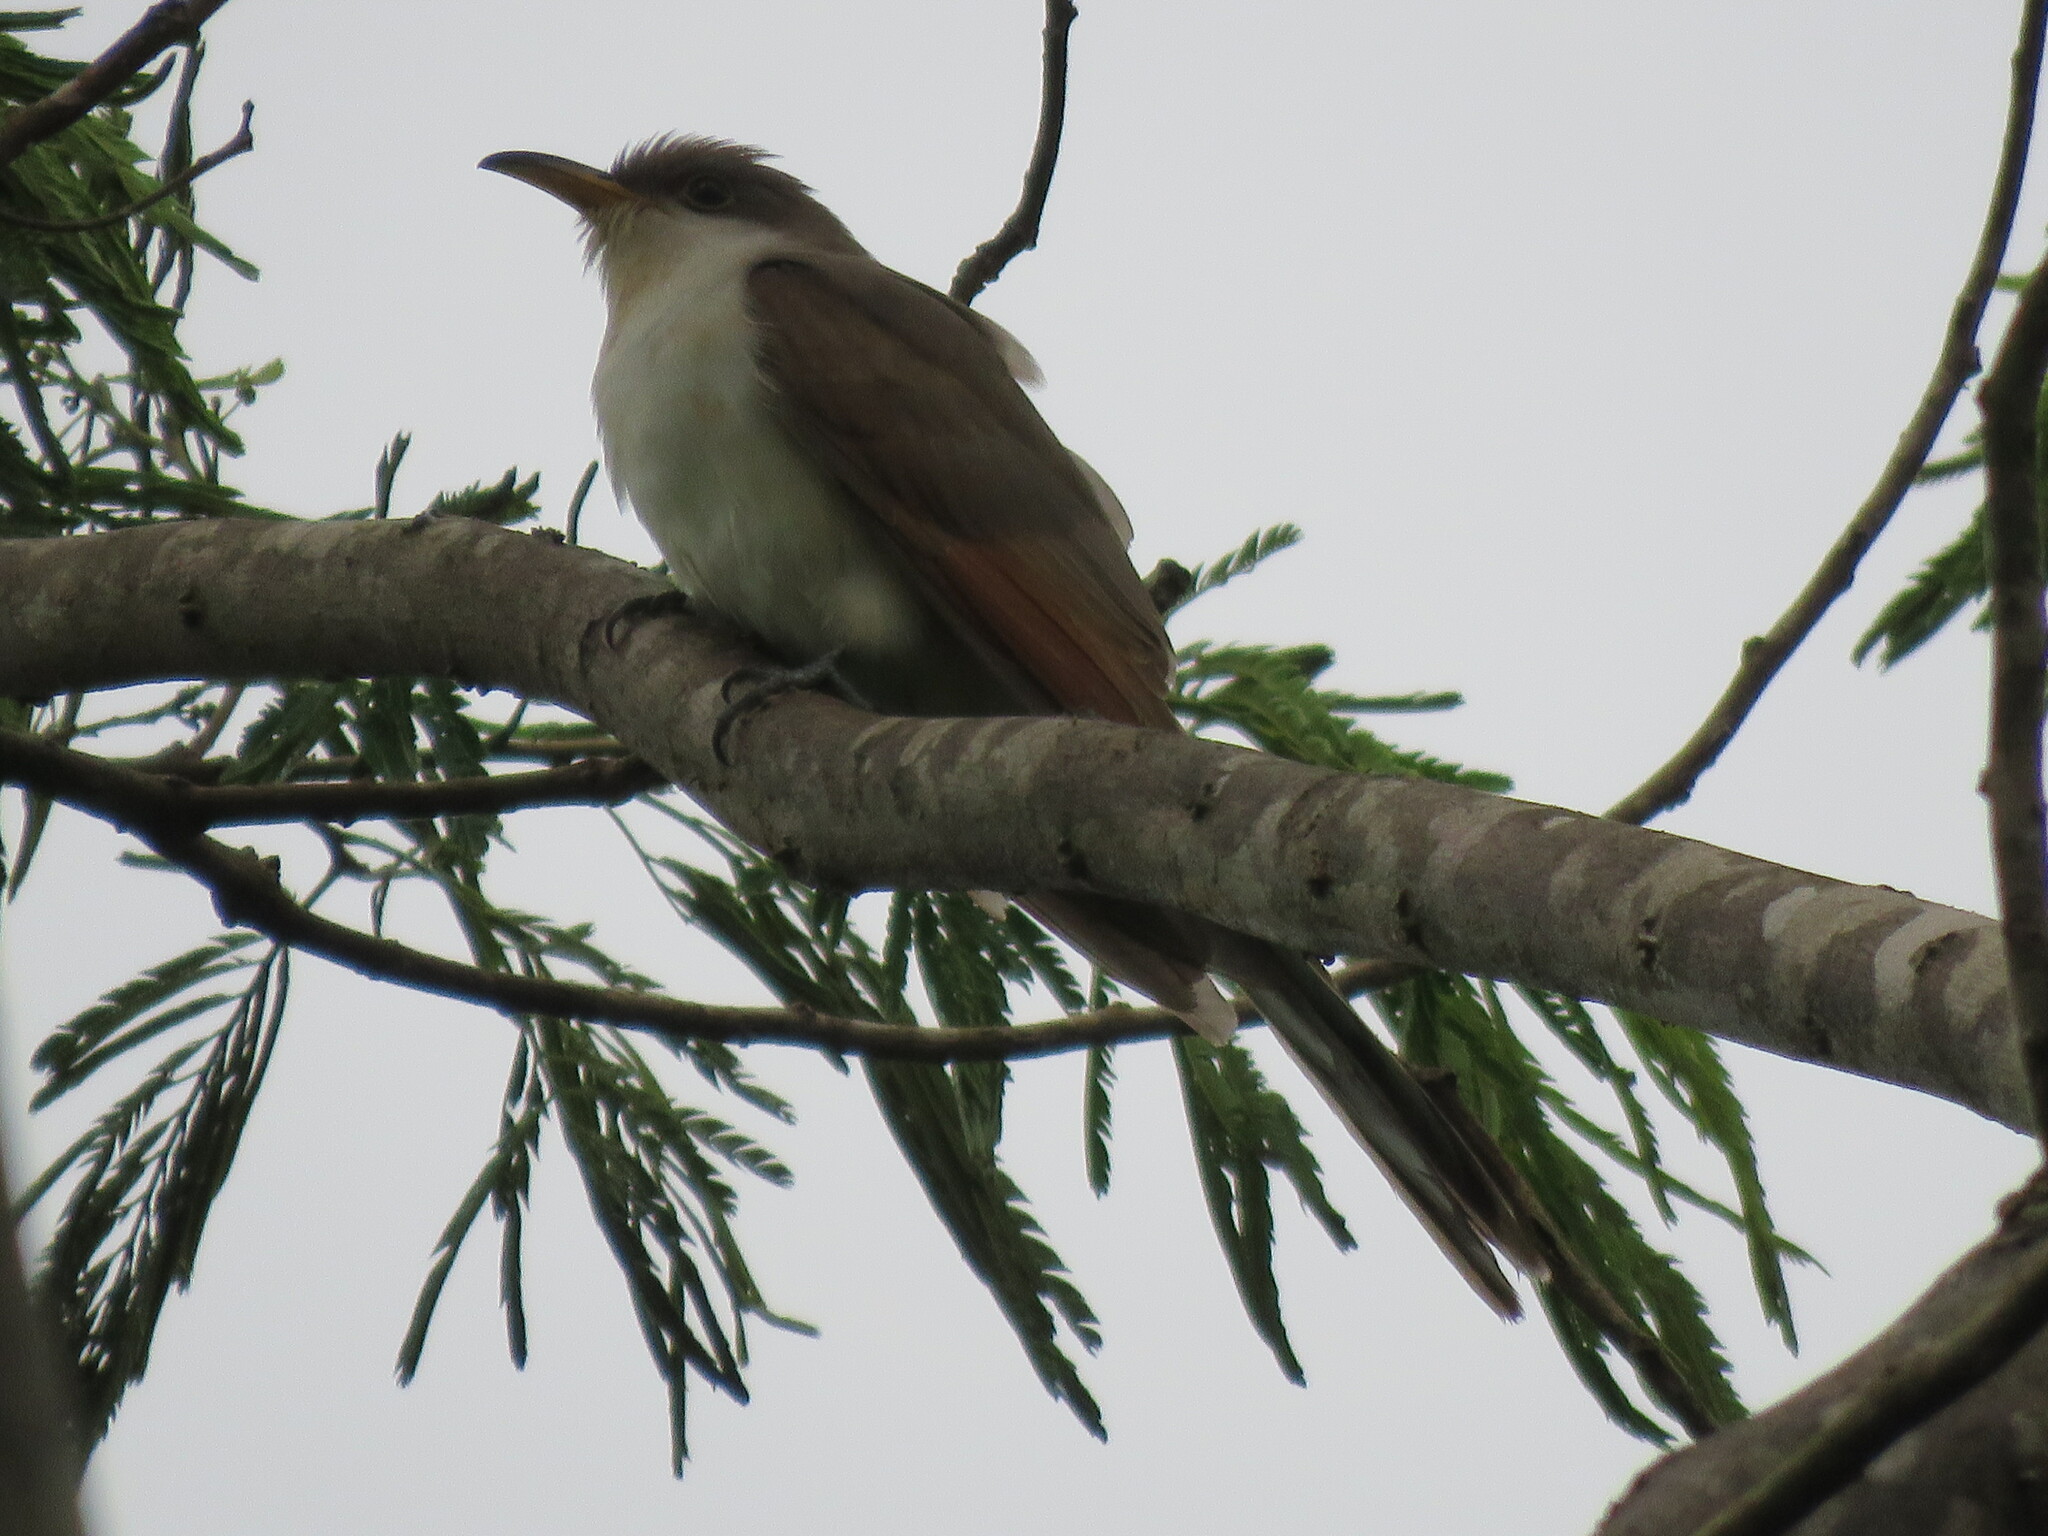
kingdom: Animalia
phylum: Chordata
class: Aves
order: Cuculiformes
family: Cuculidae
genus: Coccyzus
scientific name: Coccyzus americanus
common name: Yellow-billed cuckoo
